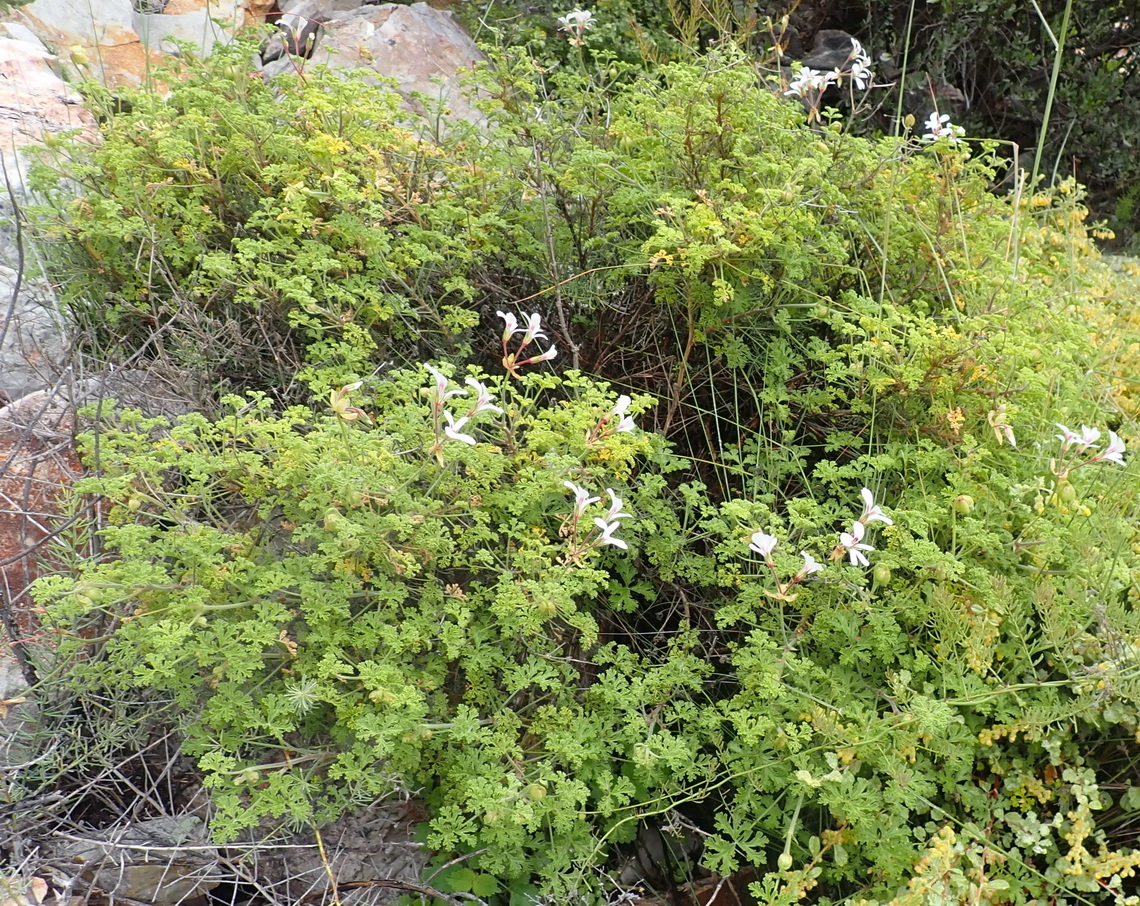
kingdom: Plantae
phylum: Tracheophyta
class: Magnoliopsida
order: Geraniales
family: Geraniaceae
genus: Pelargonium
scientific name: Pelargonium trifidum
